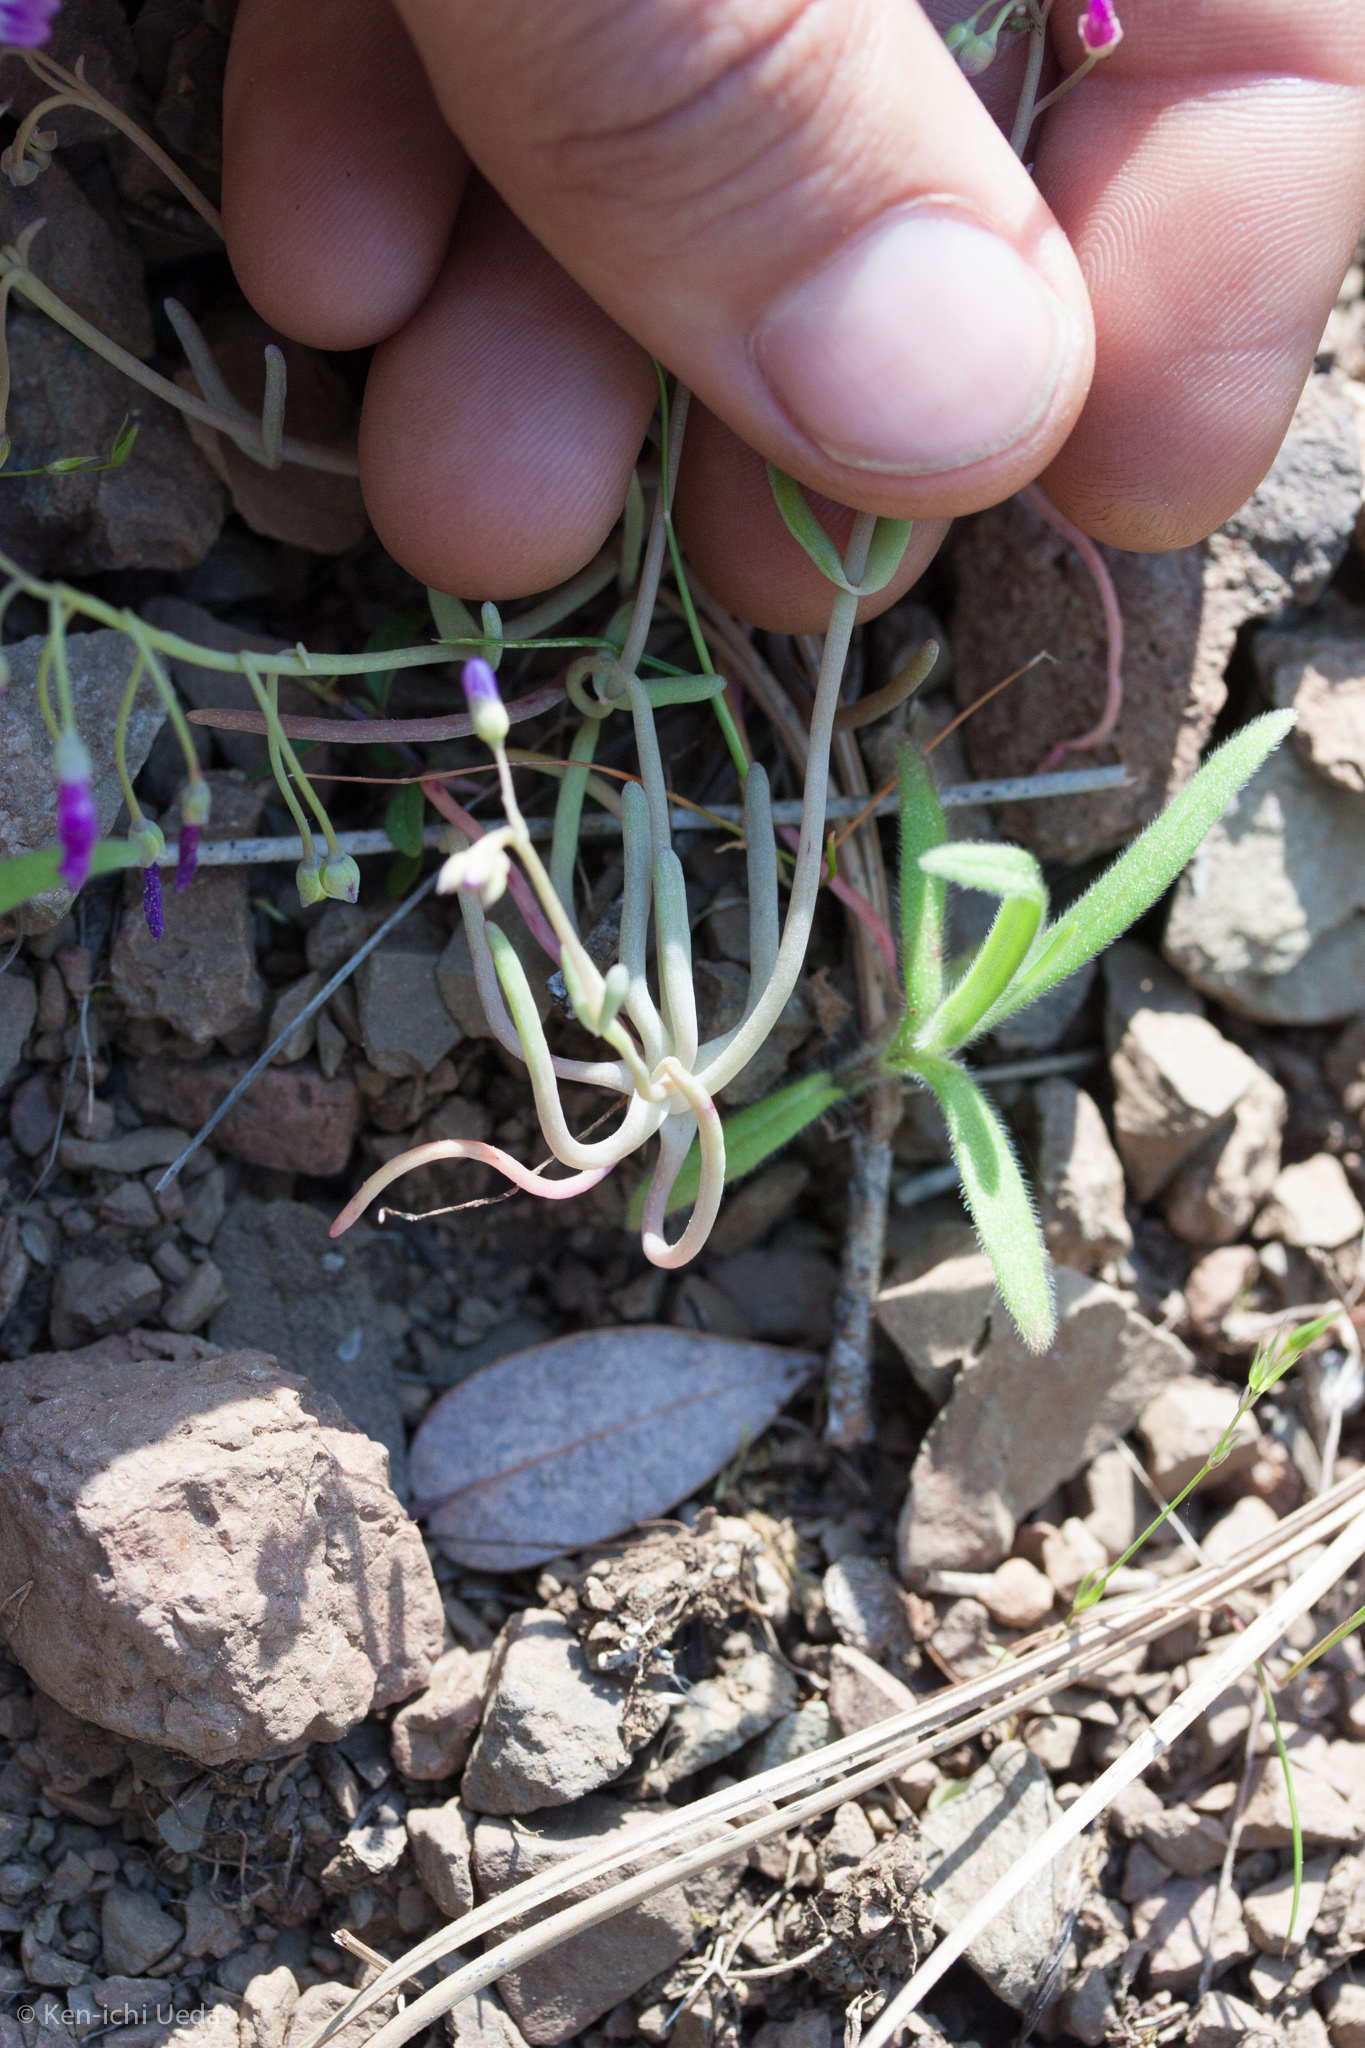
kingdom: Plantae
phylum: Tracheophyta
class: Magnoliopsida
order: Caryophyllales
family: Montiaceae
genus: Claytonia
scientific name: Claytonia gypsophiloides
